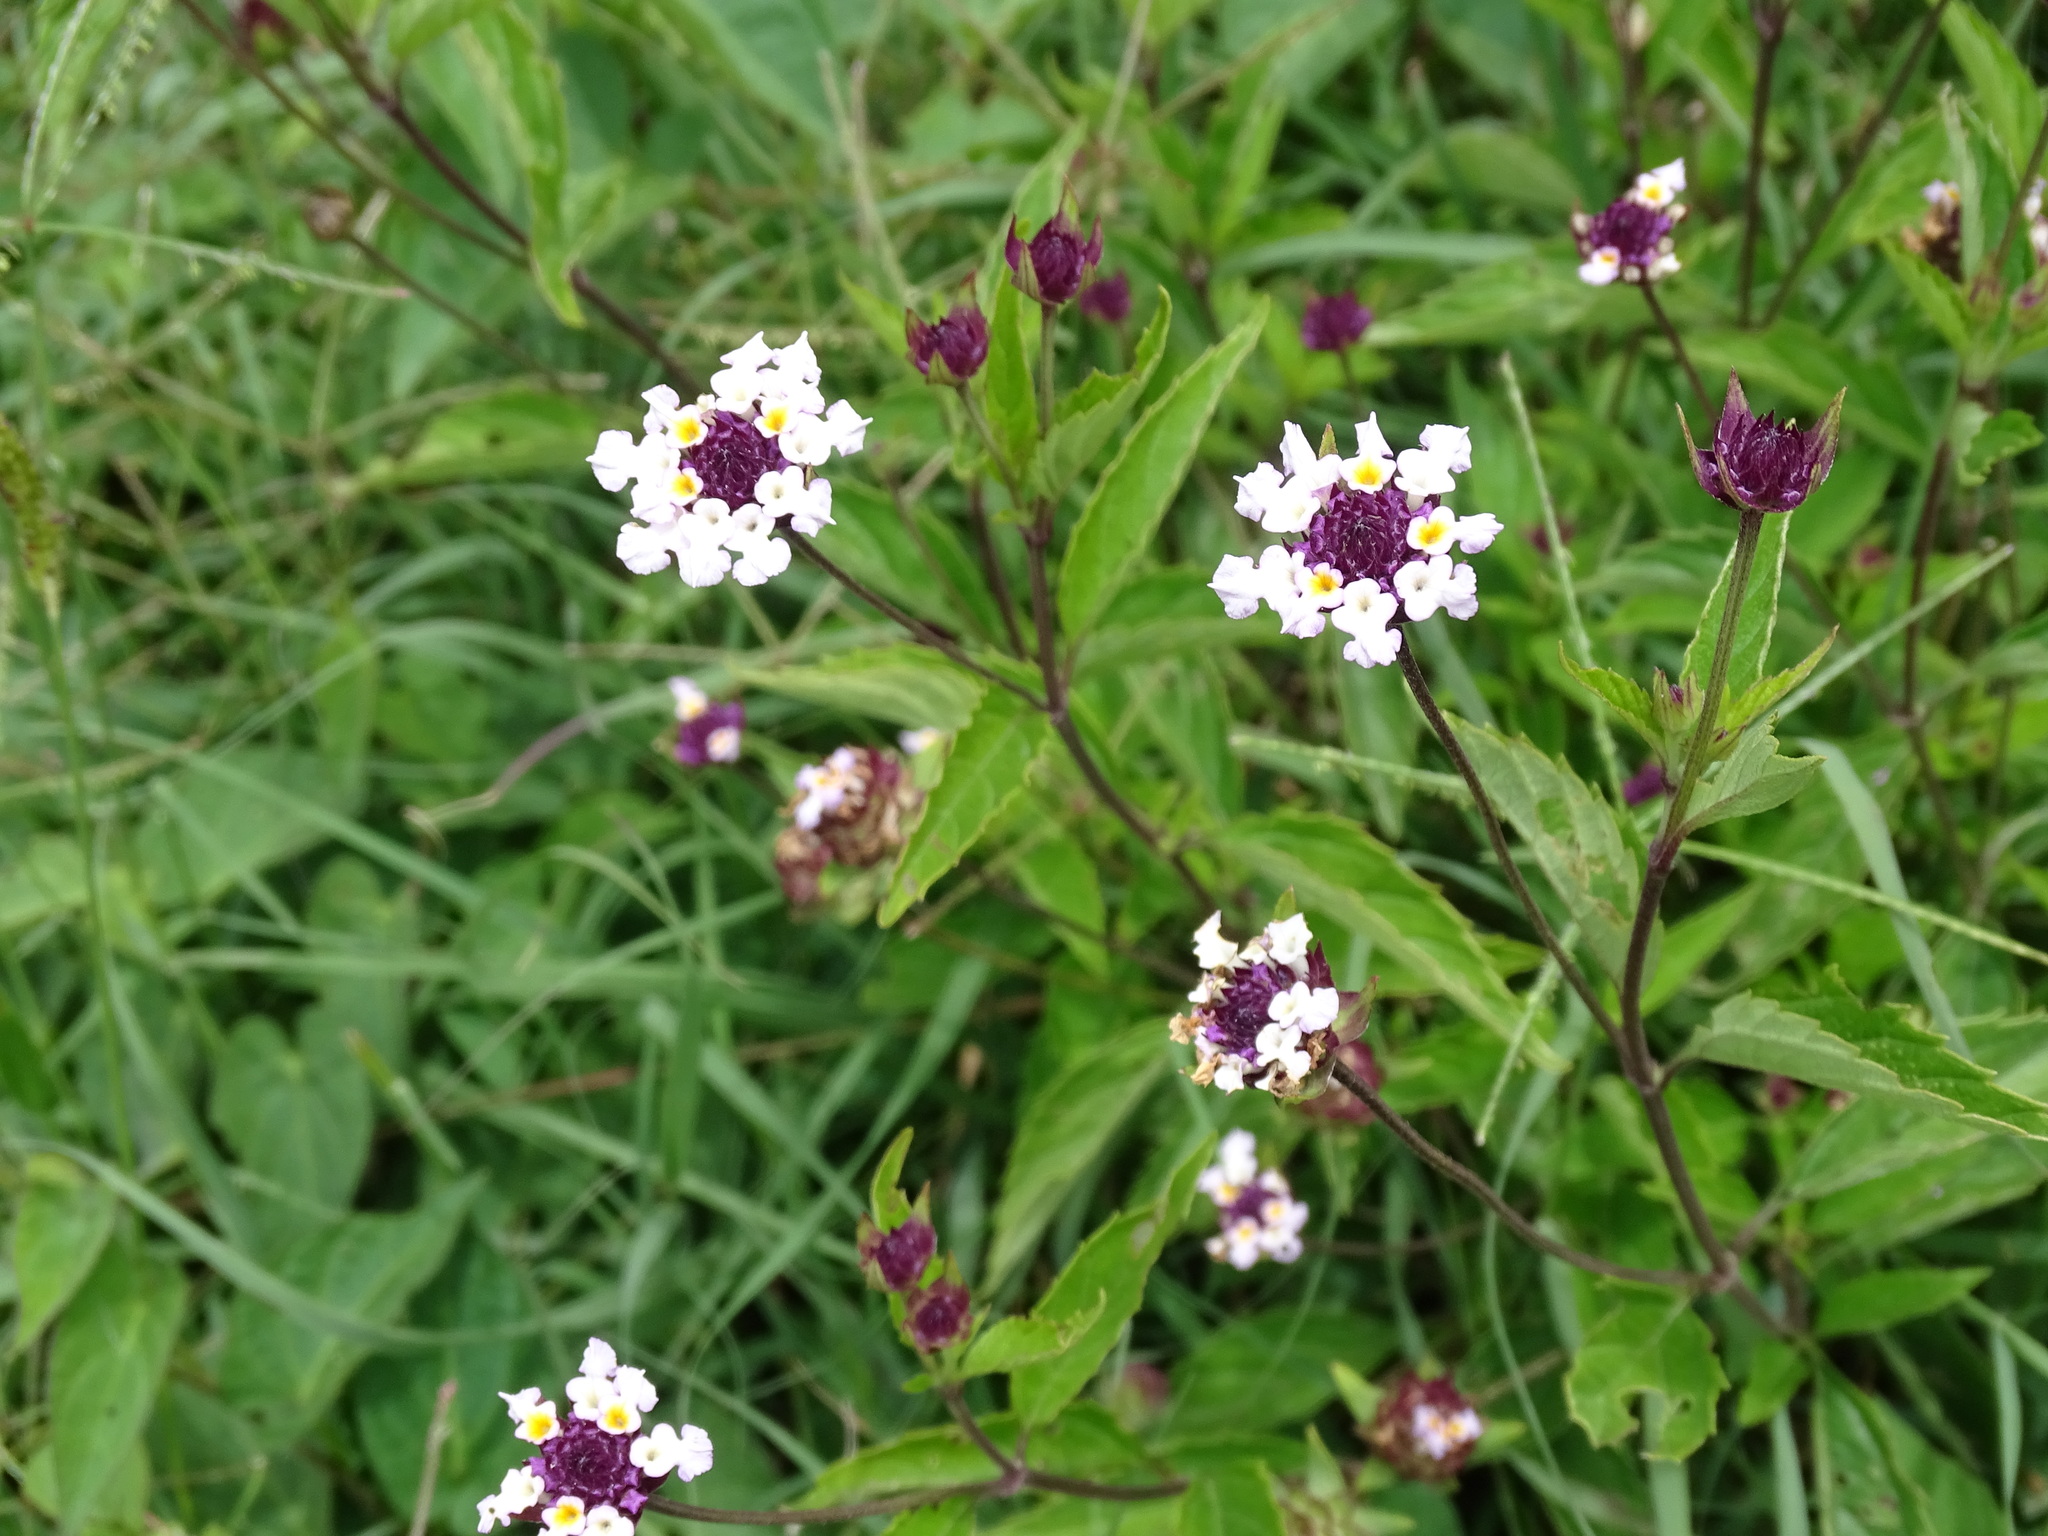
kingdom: Plantae
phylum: Tracheophyta
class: Magnoliopsida
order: Lamiales
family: Verbenaceae
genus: Lantana
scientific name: Lantana achyranthifolia
